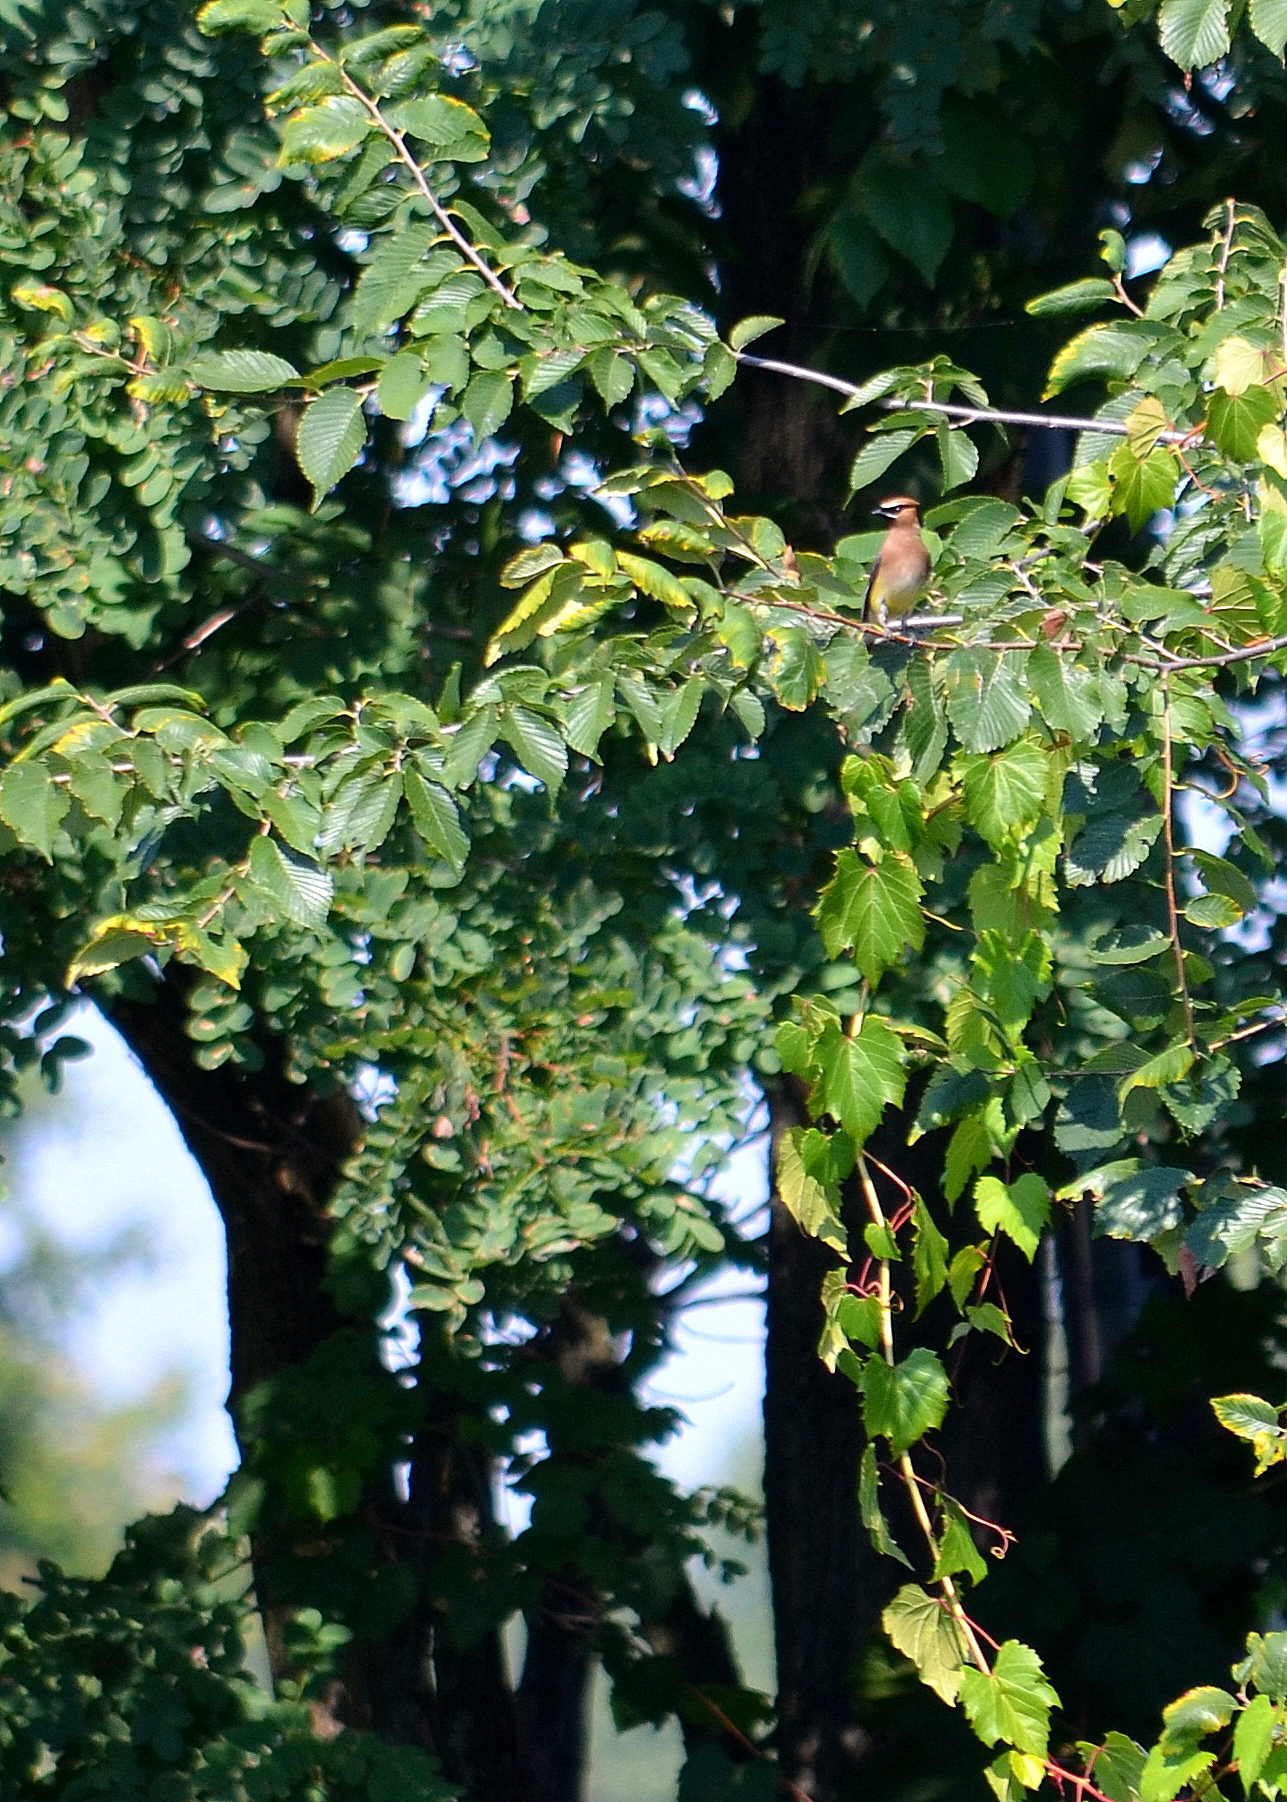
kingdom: Animalia
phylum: Chordata
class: Aves
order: Passeriformes
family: Bombycillidae
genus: Bombycilla
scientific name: Bombycilla cedrorum
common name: Cedar waxwing
